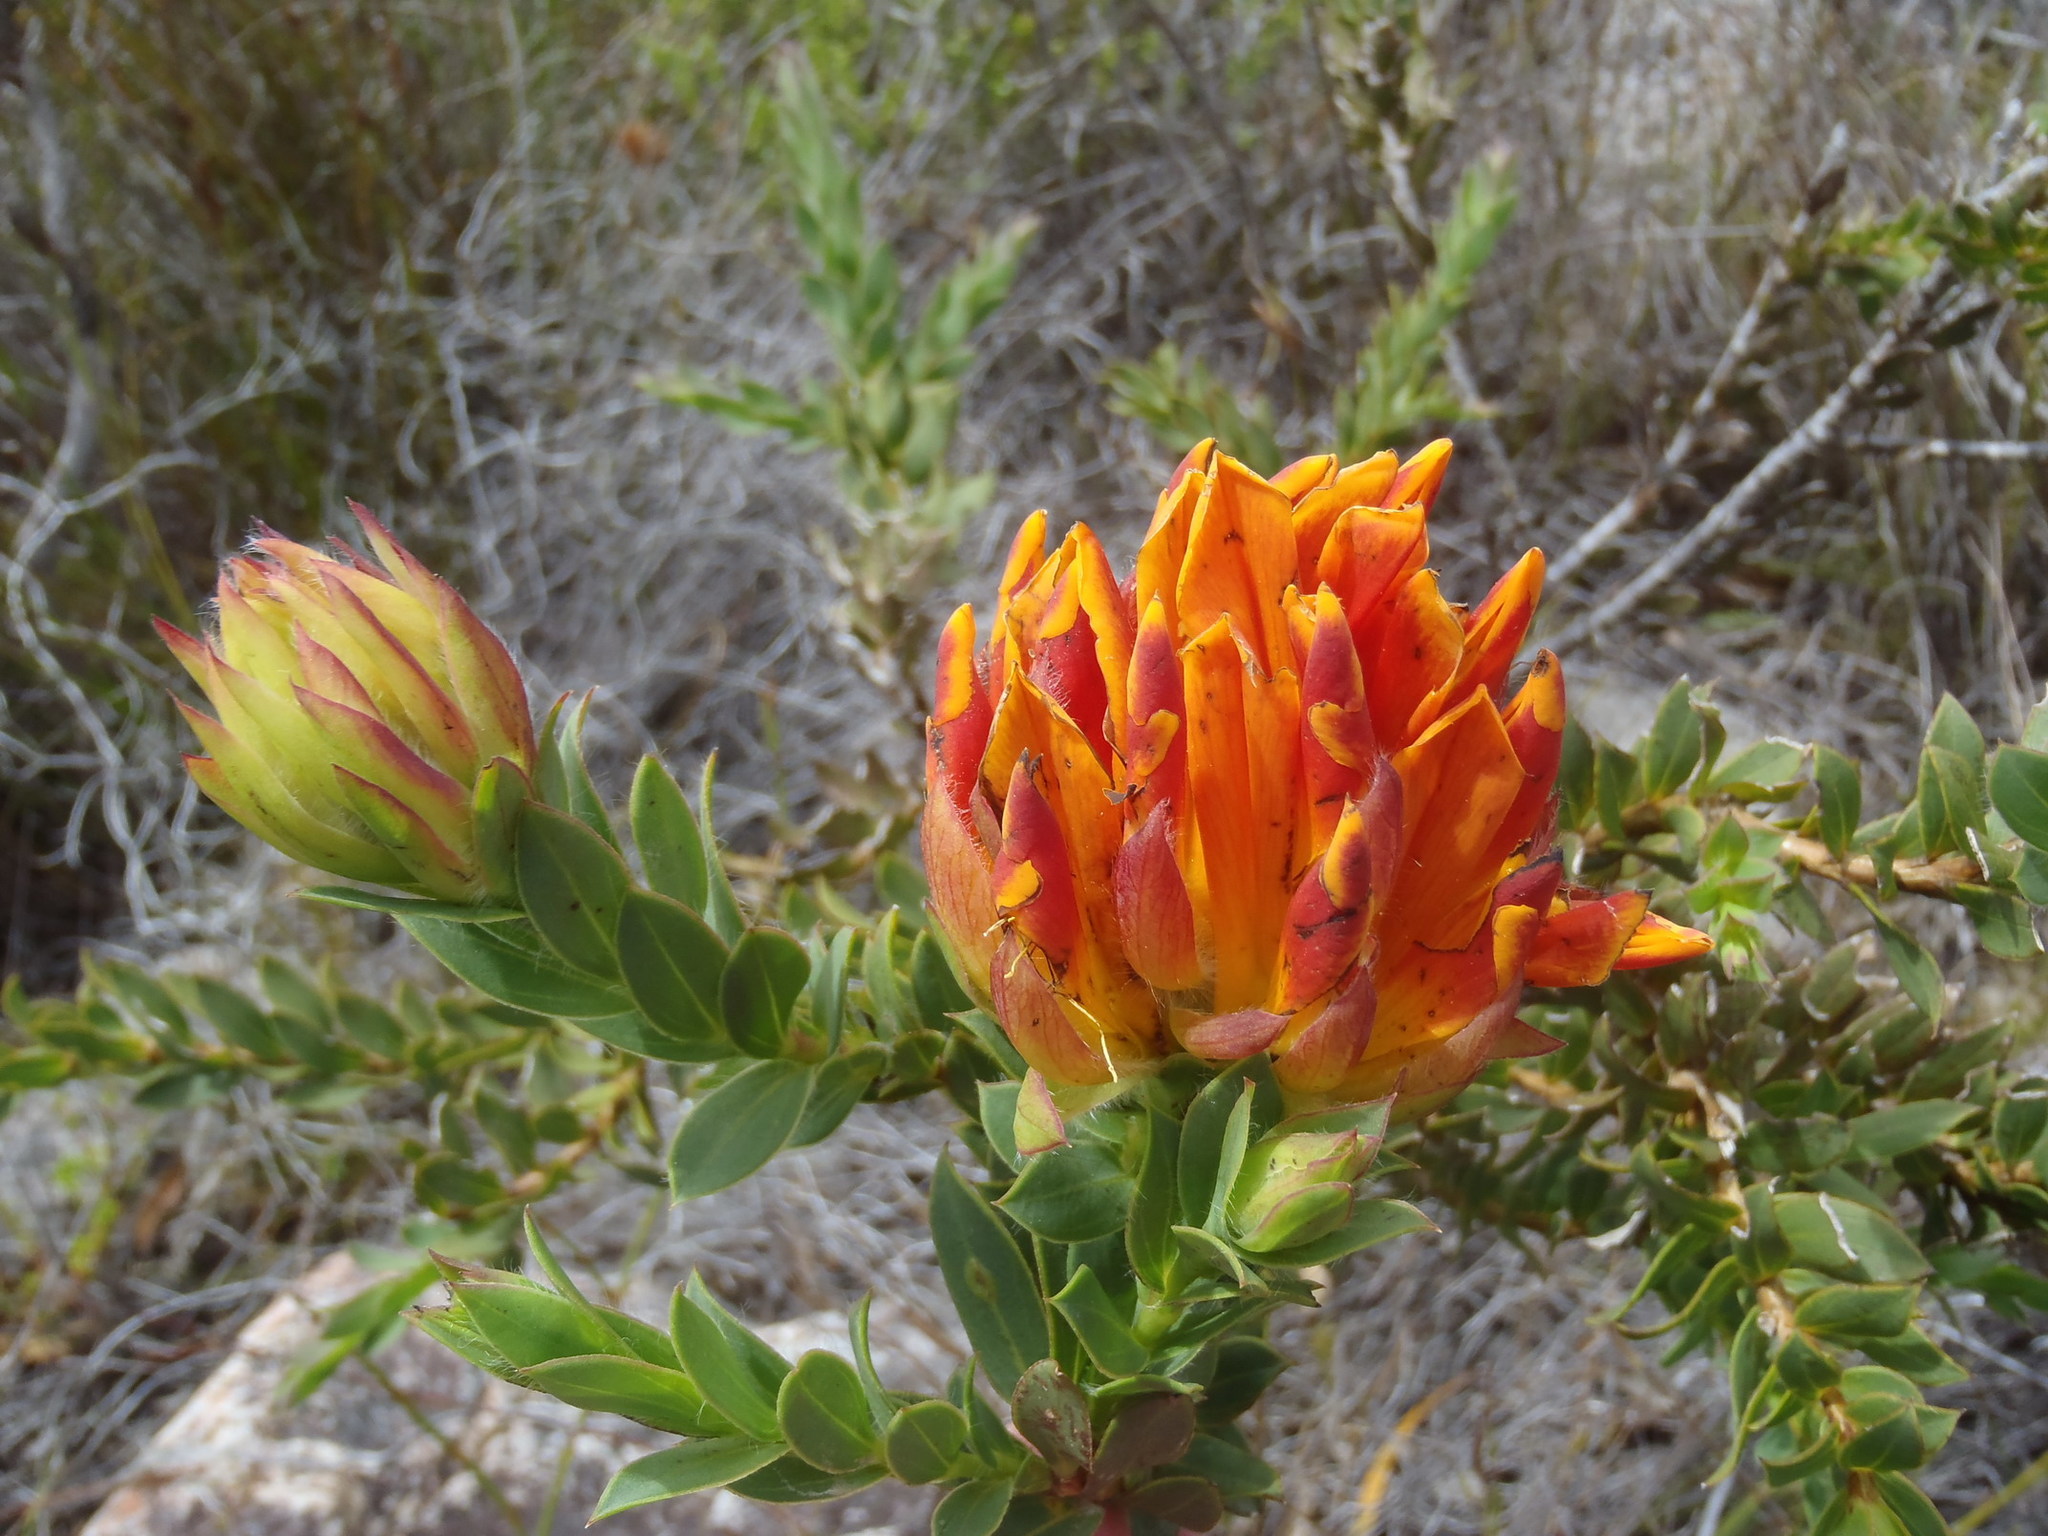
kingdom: Plantae
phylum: Tracheophyta
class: Magnoliopsida
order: Fabales
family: Fabaceae
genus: Liparia
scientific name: Liparia splendens
